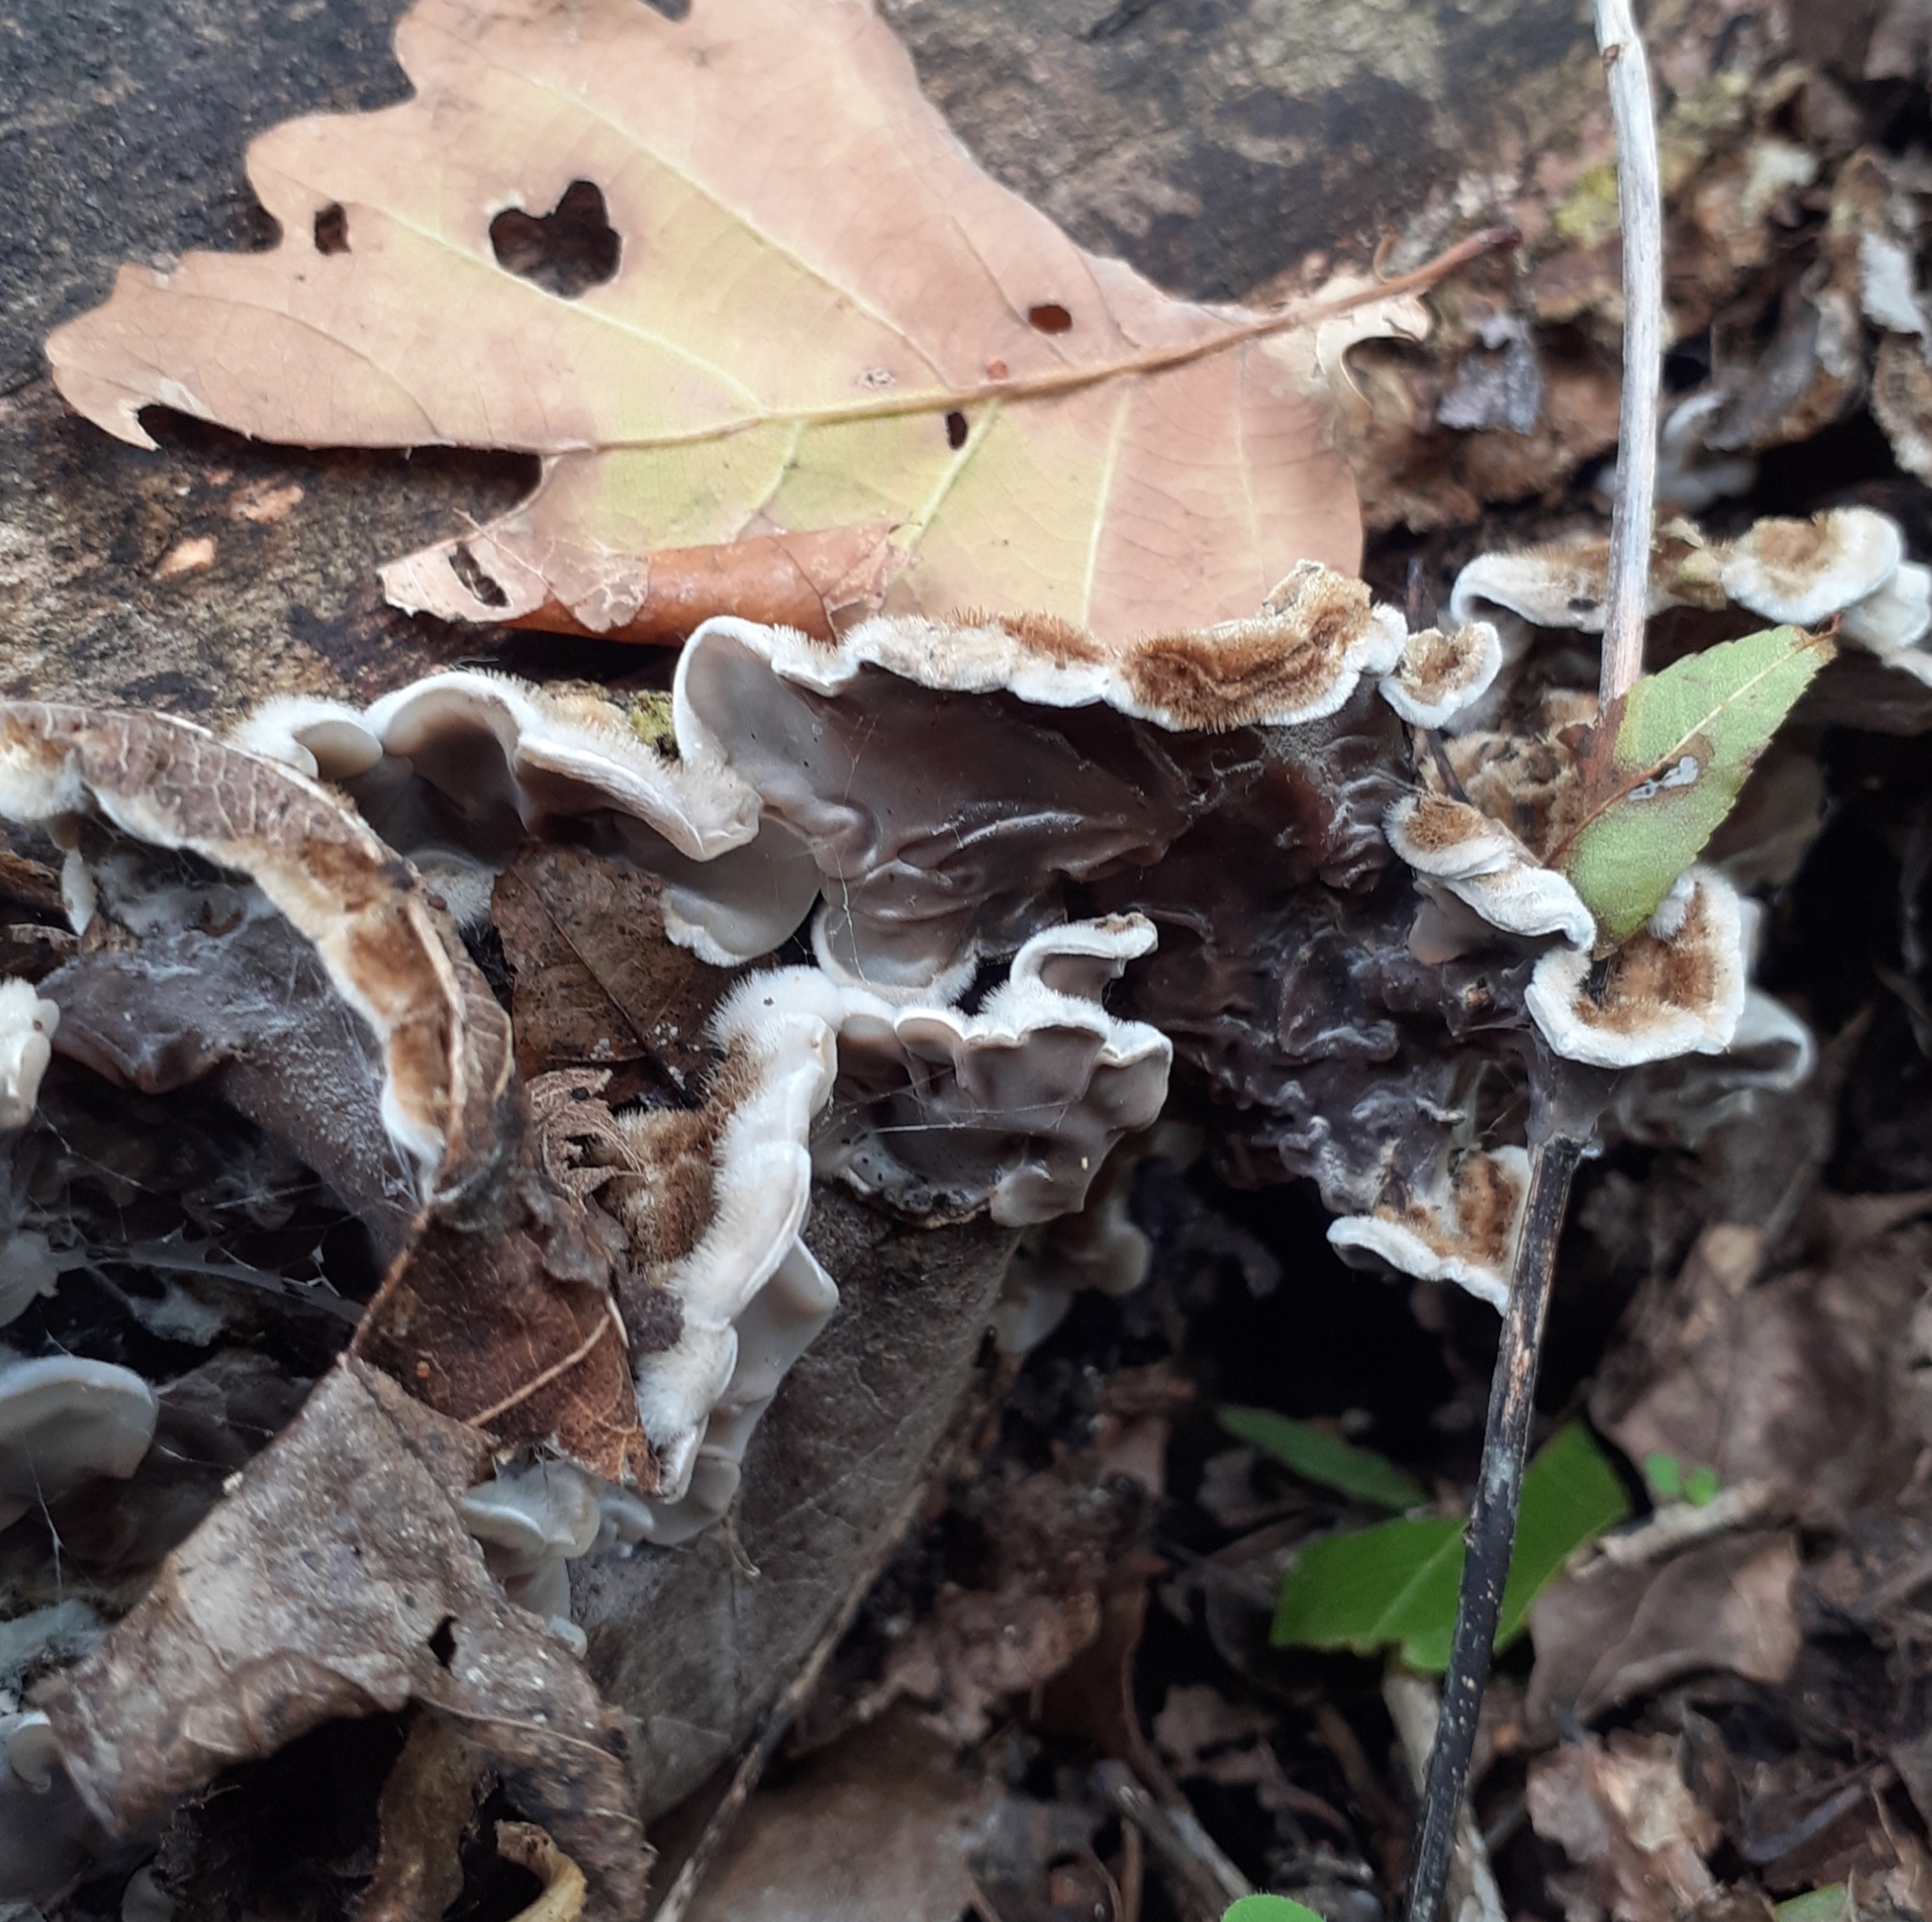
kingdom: Fungi
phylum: Basidiomycota
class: Agaricomycetes
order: Auriculariales
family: Auriculariaceae
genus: Auricularia
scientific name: Auricularia mesenterica
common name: Tripe fungus
